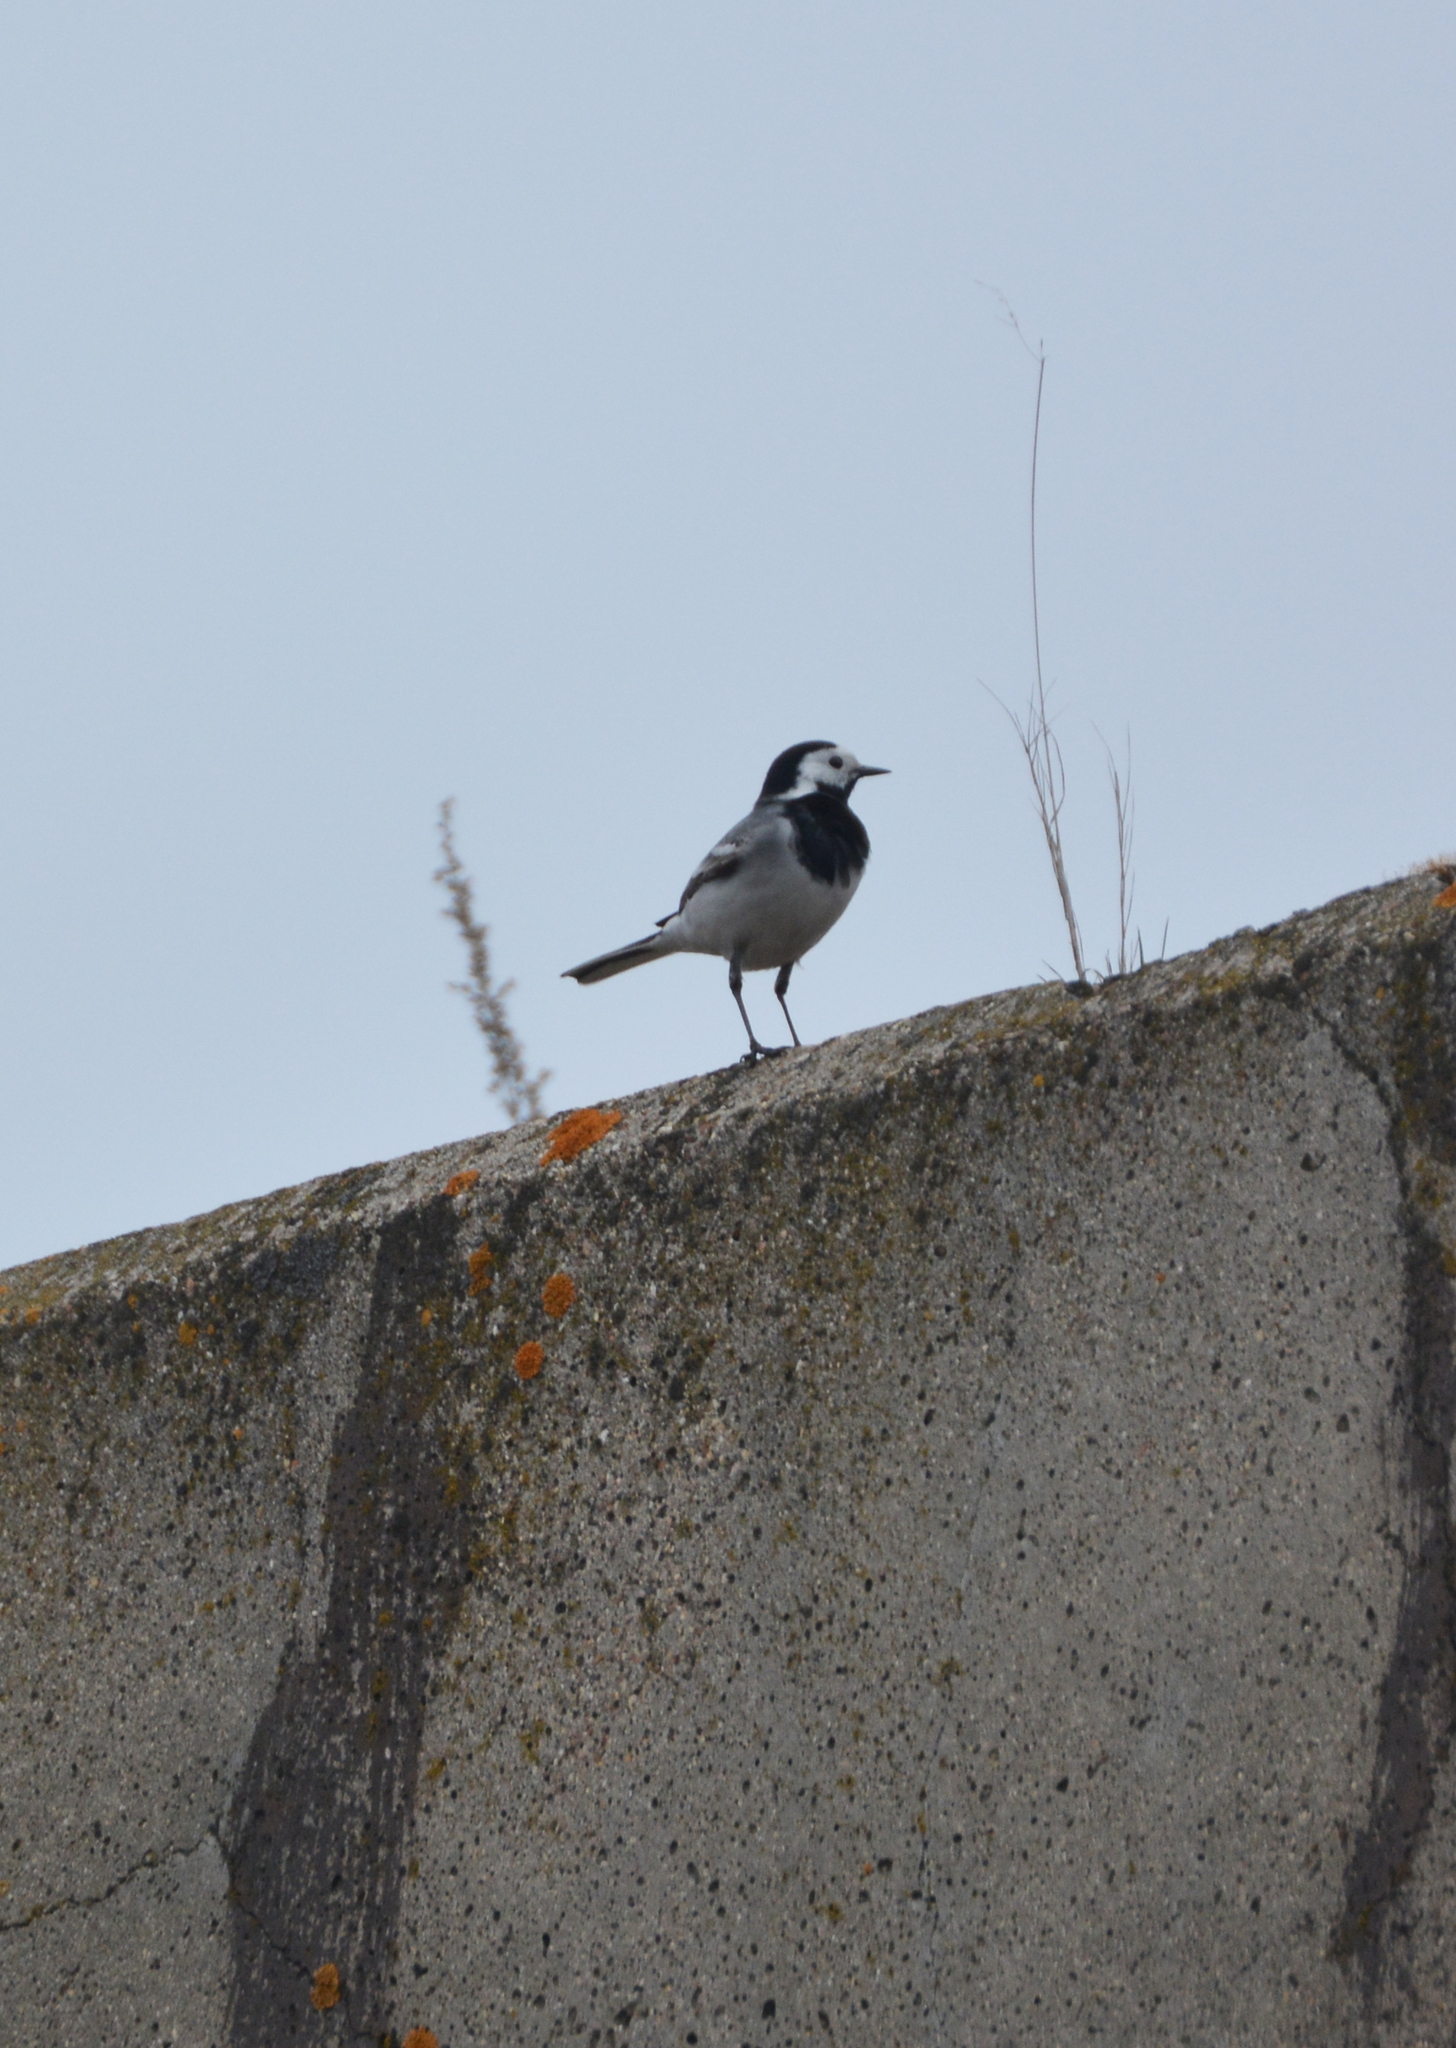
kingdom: Animalia
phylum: Chordata
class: Aves
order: Passeriformes
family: Motacillidae
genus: Motacilla
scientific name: Motacilla alba
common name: White wagtail
